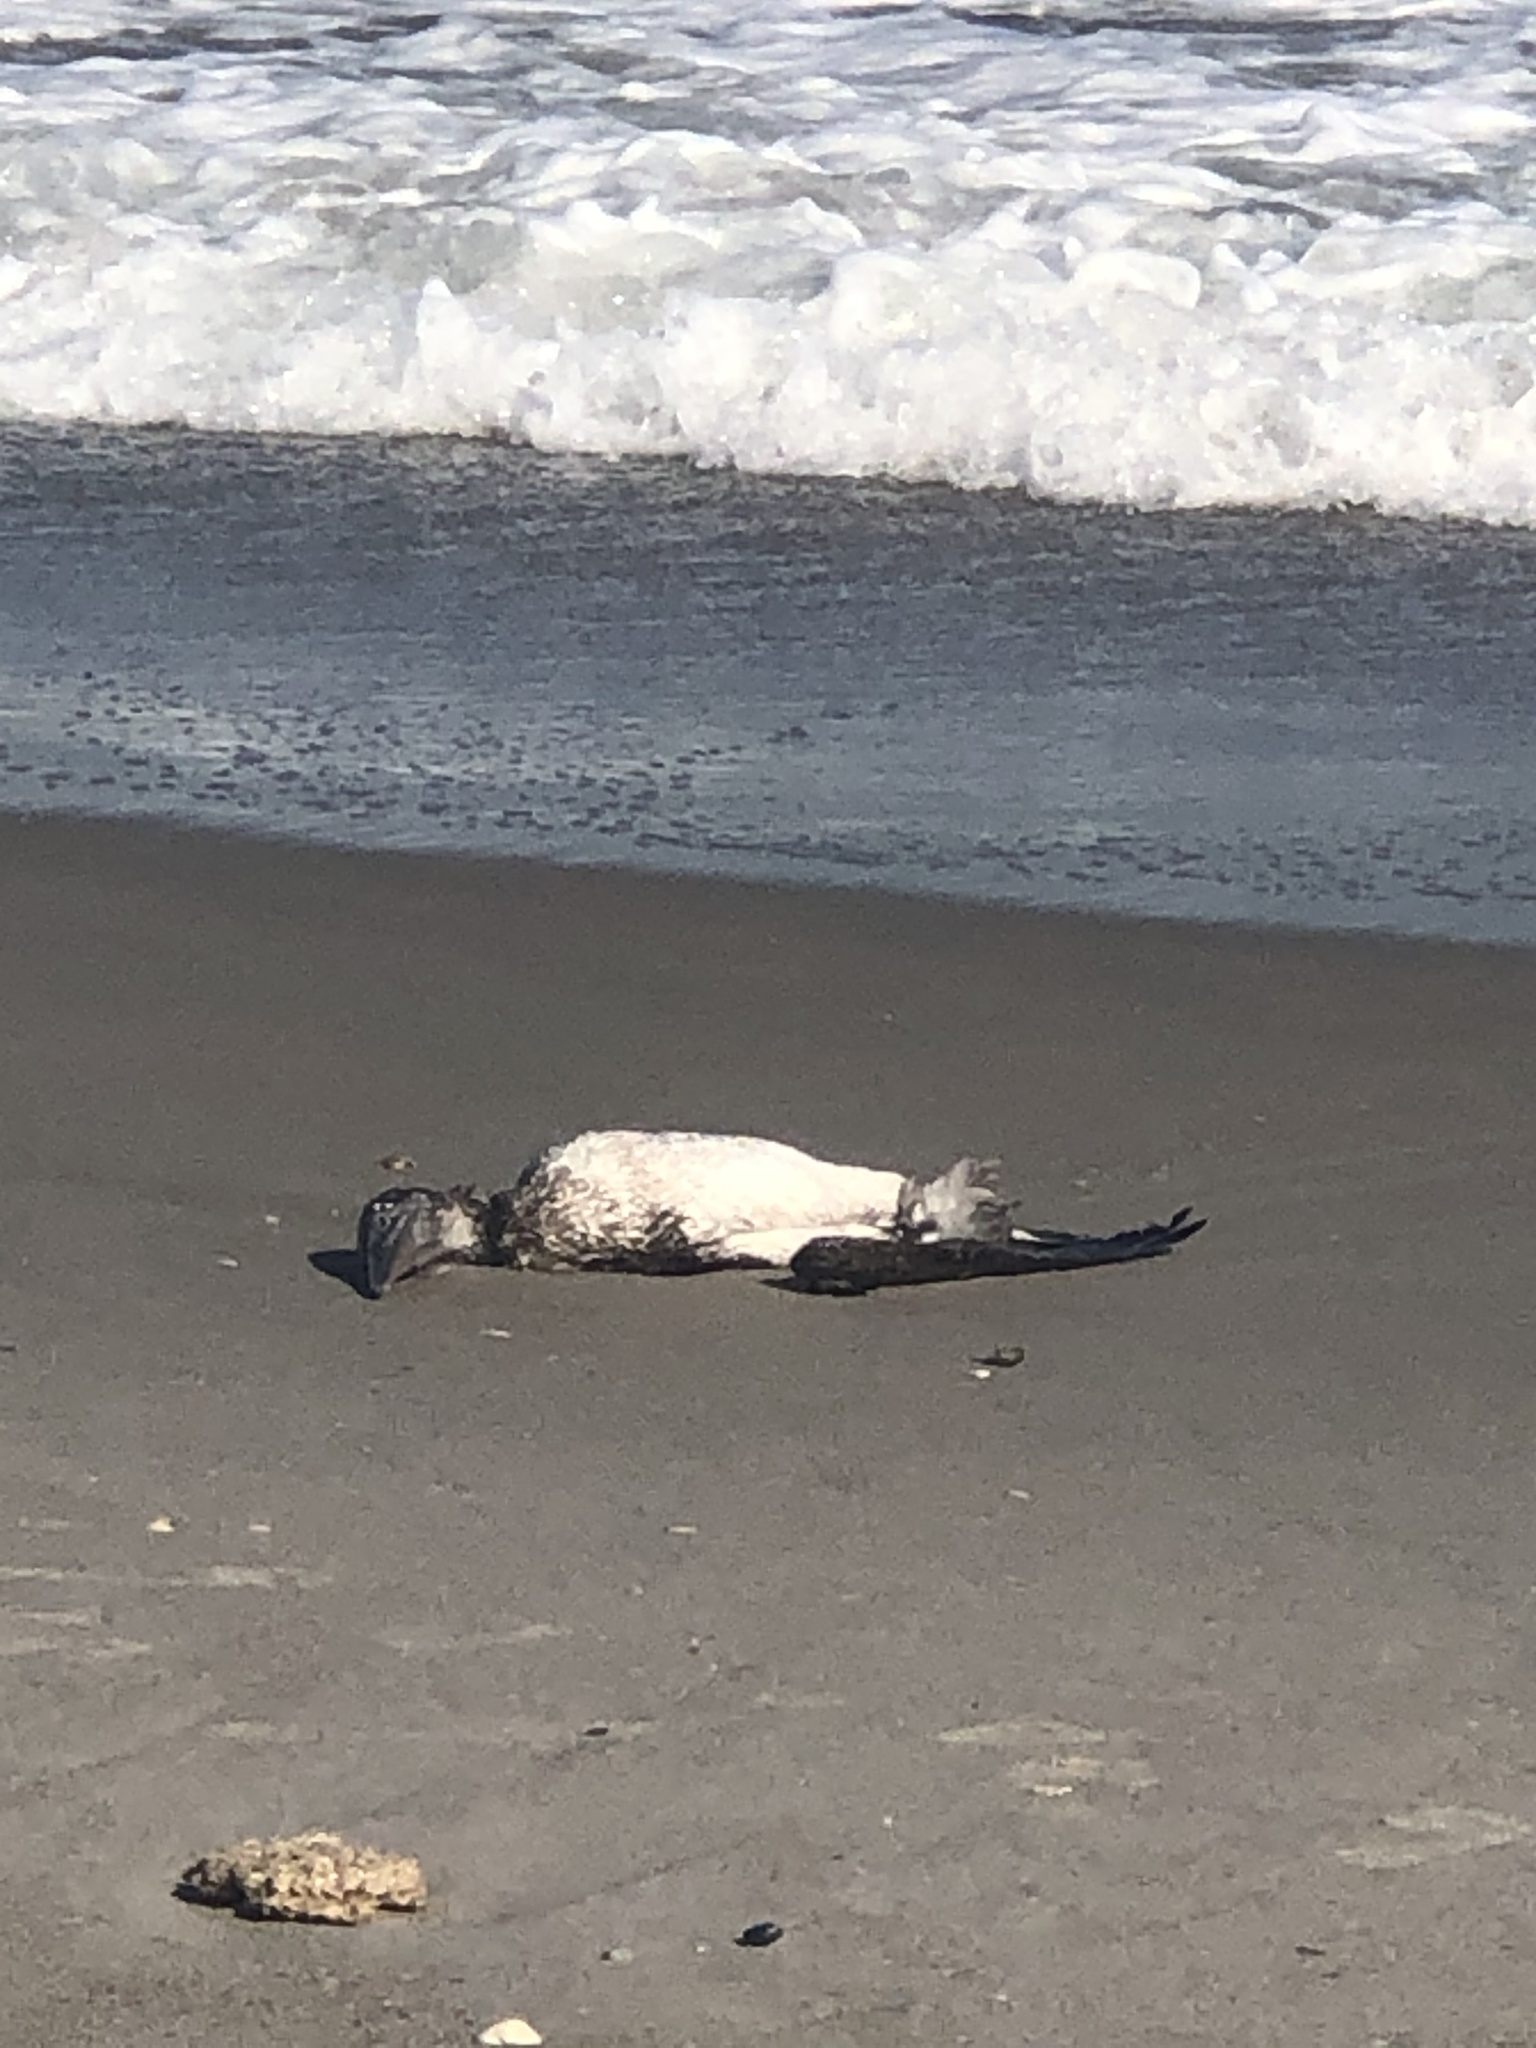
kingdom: Animalia
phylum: Chordata
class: Aves
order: Suliformes
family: Sulidae
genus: Morus
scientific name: Morus bassanus
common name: Northern gannet
